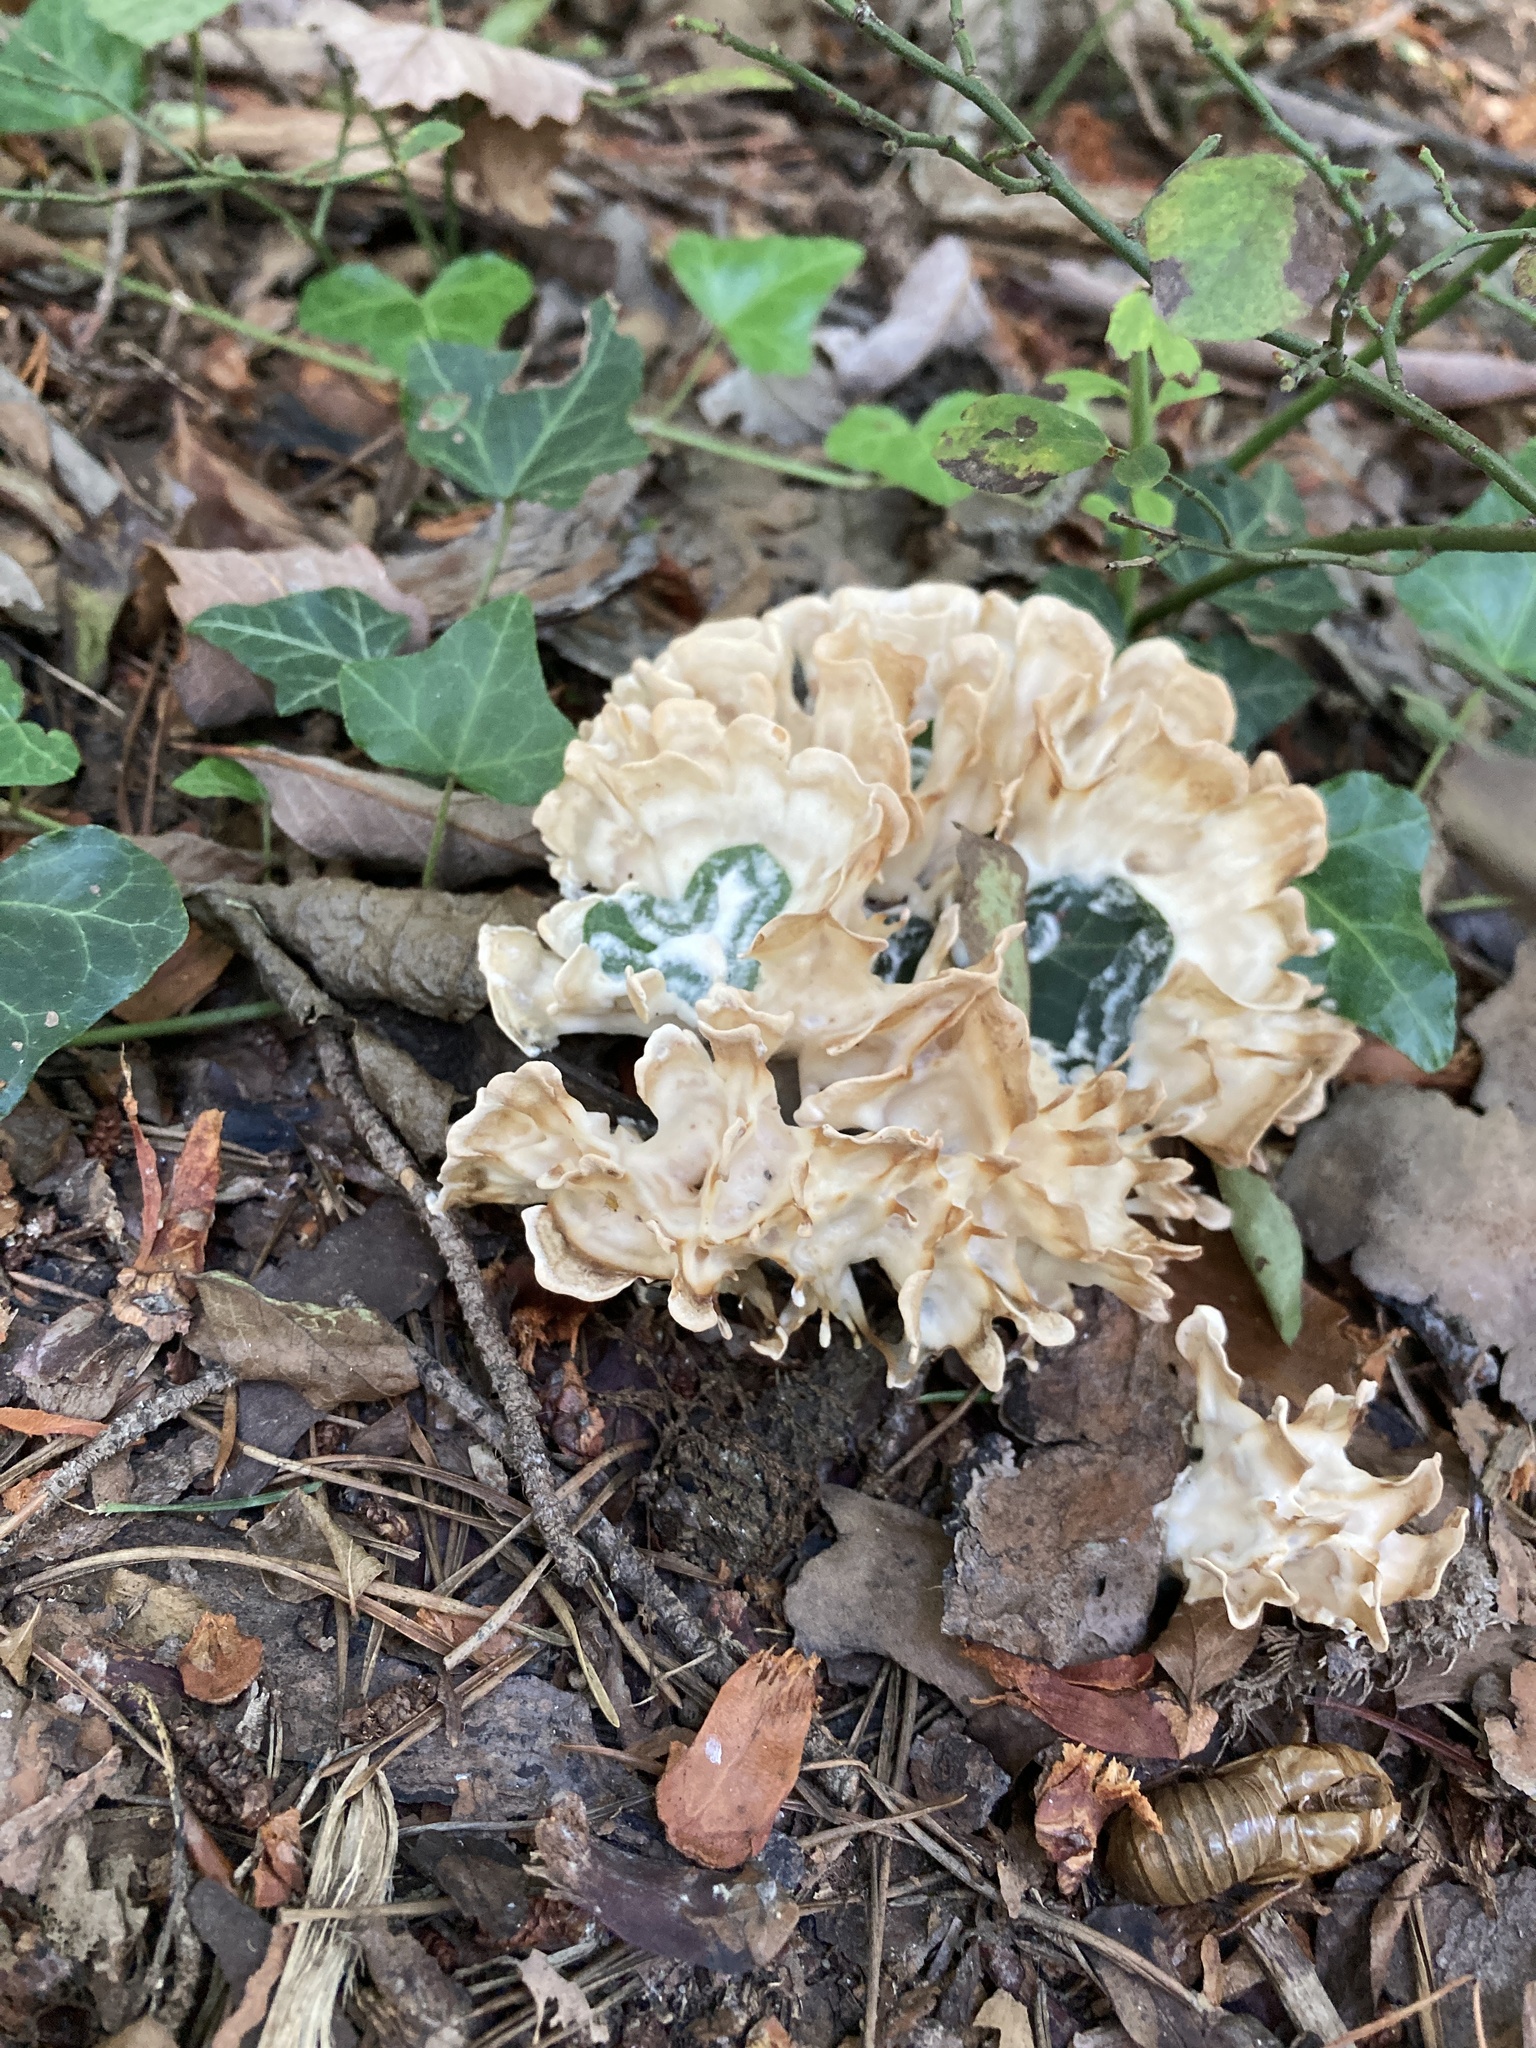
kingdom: Fungi
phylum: Basidiomycota
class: Agaricomycetes
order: Polyporales
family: Sparassidaceae
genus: Sparassis
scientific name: Sparassis spathulata
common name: Eastern cauliflower mushroom
